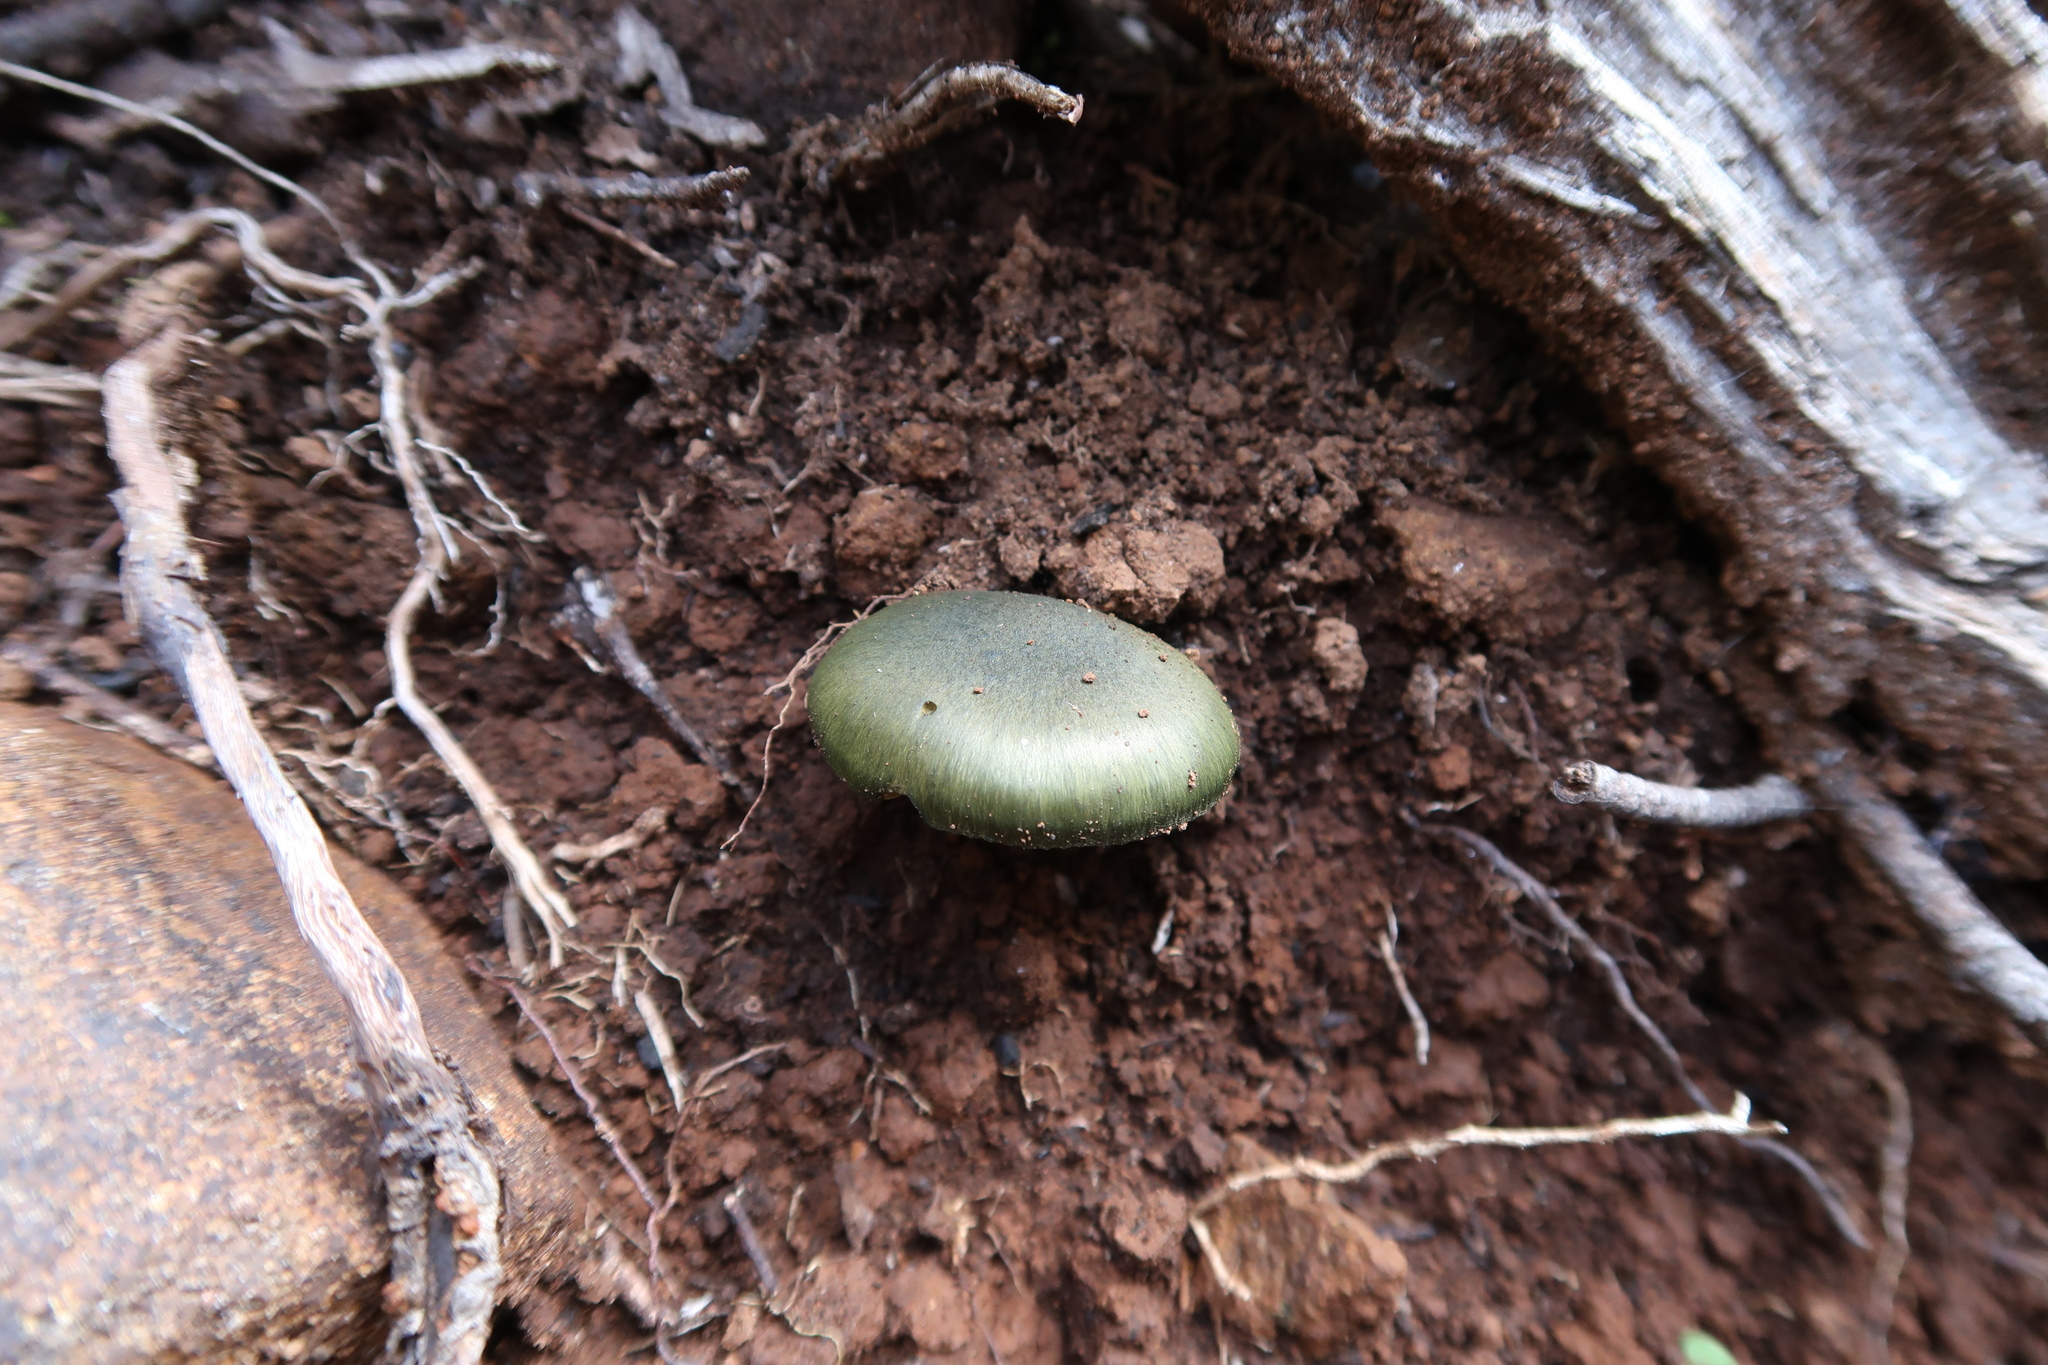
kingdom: Fungi
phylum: Basidiomycota
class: Agaricomycetes
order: Agaricales
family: Cortinariaceae
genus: Cortinarius
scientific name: Cortinarius austrovenetus
